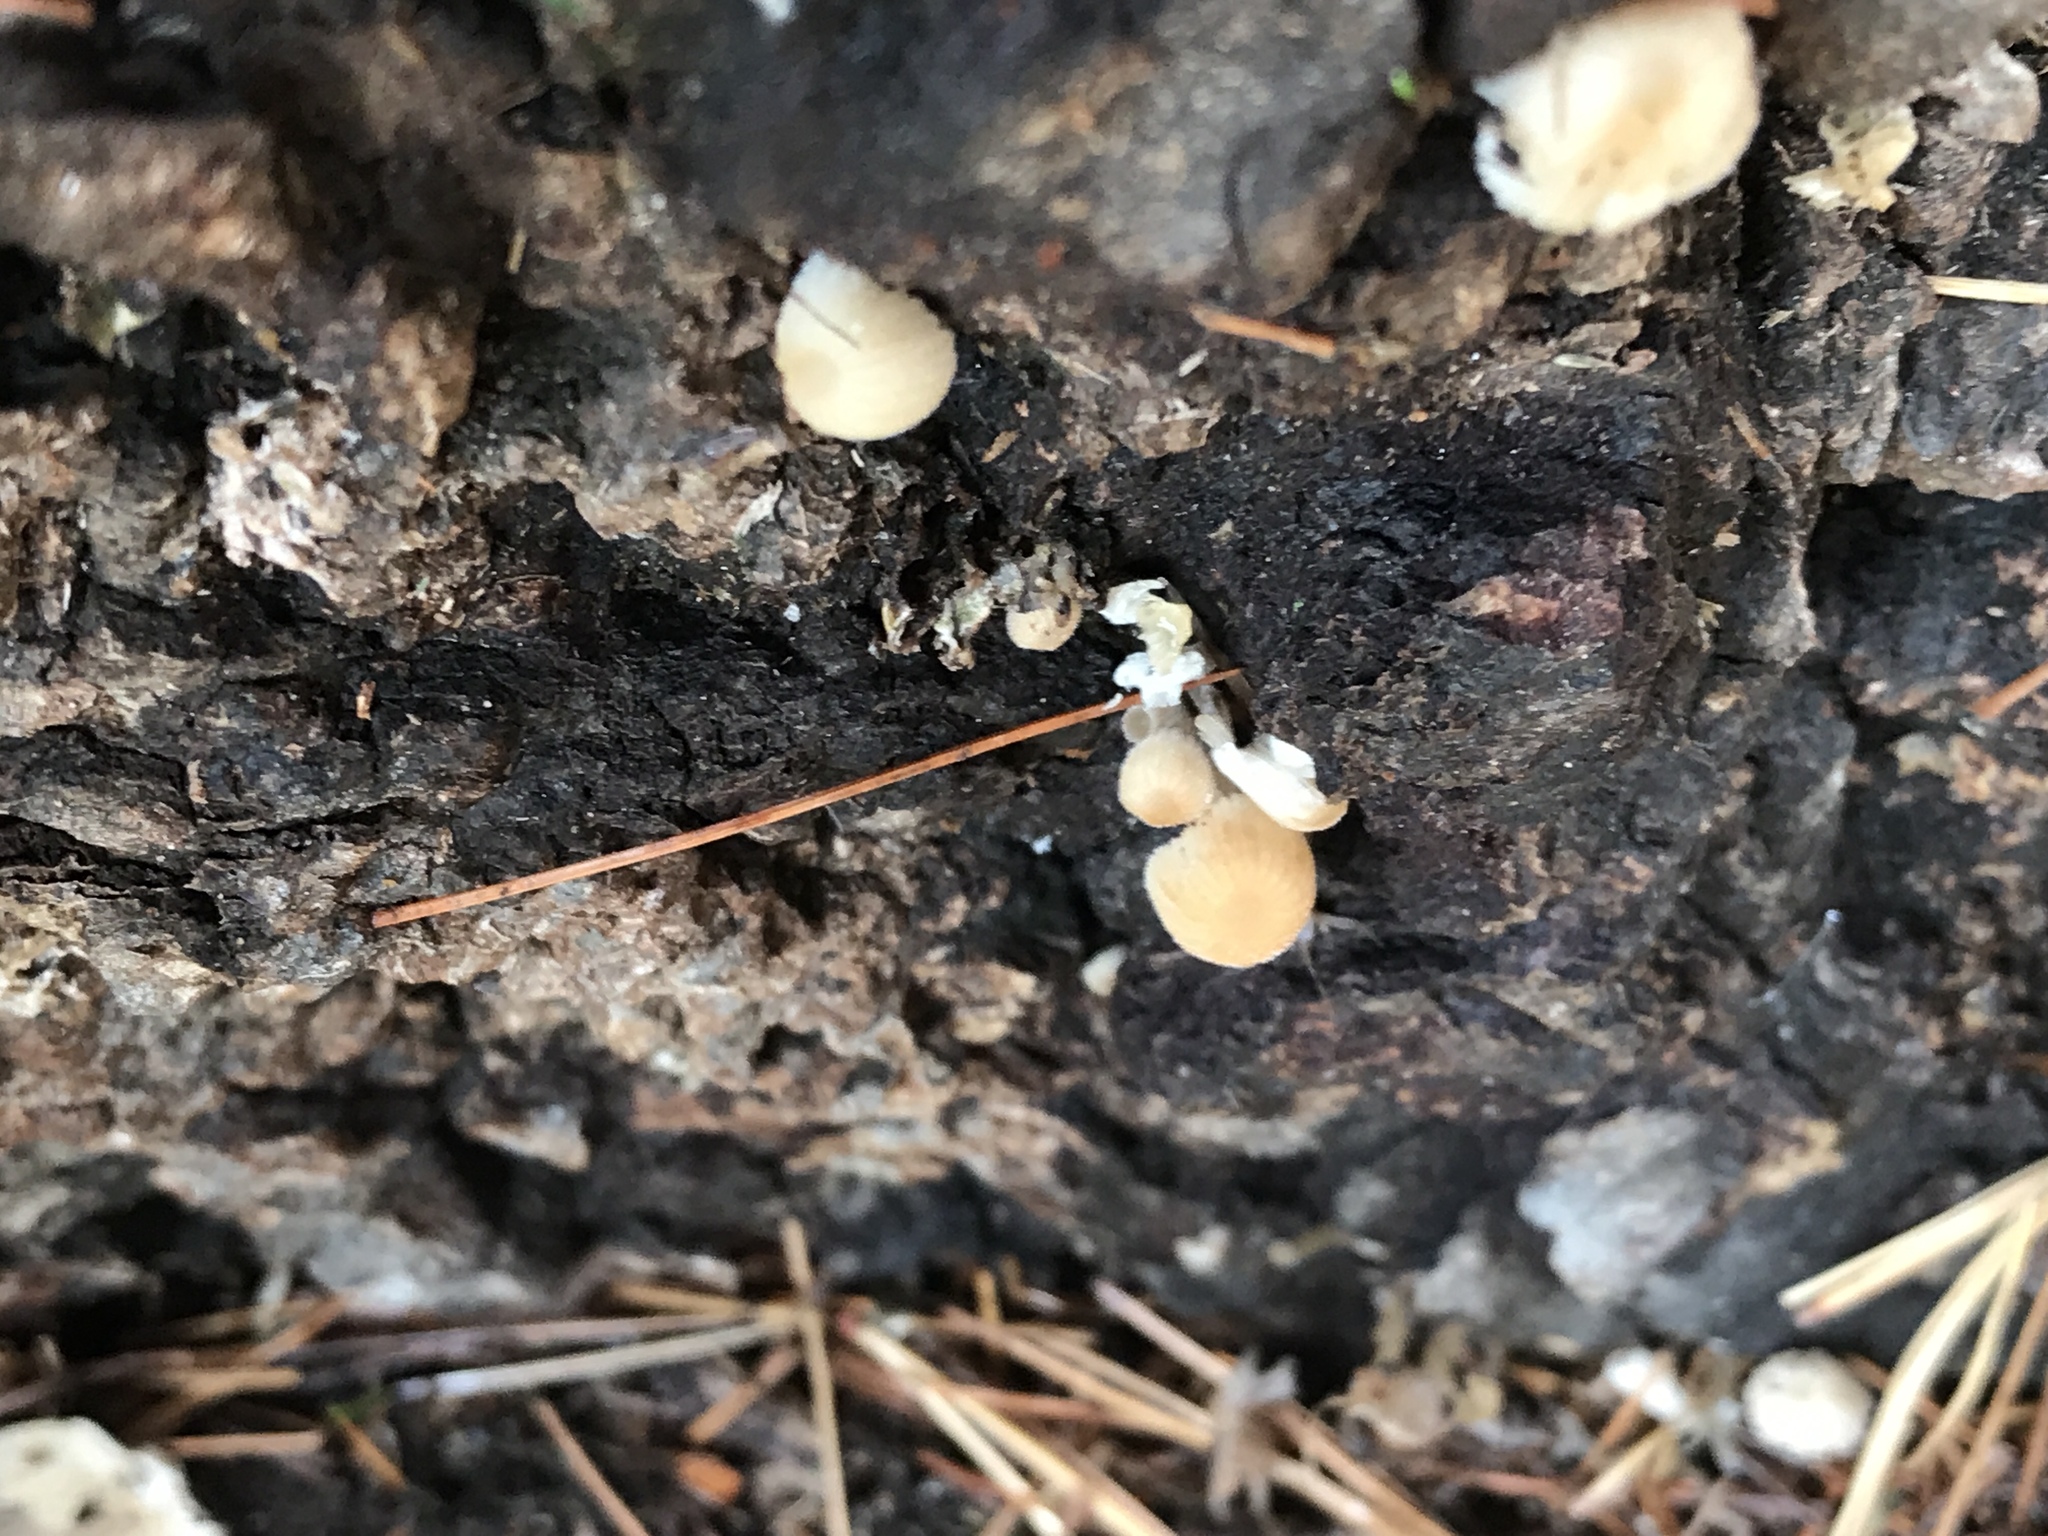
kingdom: Fungi
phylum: Basidiomycota
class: Agaricomycetes
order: Agaricales
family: Psathyrellaceae
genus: Coprinellus
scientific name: Coprinellus disseminatus
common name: Fairies' bonnets
